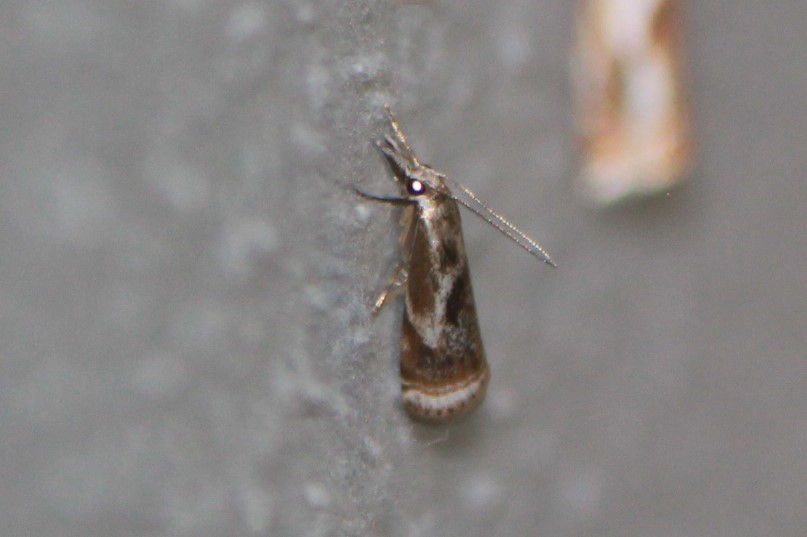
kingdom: Animalia
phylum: Arthropoda
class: Insecta
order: Lepidoptera
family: Crambidae
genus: Microcrambus
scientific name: Microcrambus elegans
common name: Elegant grass-veneer
